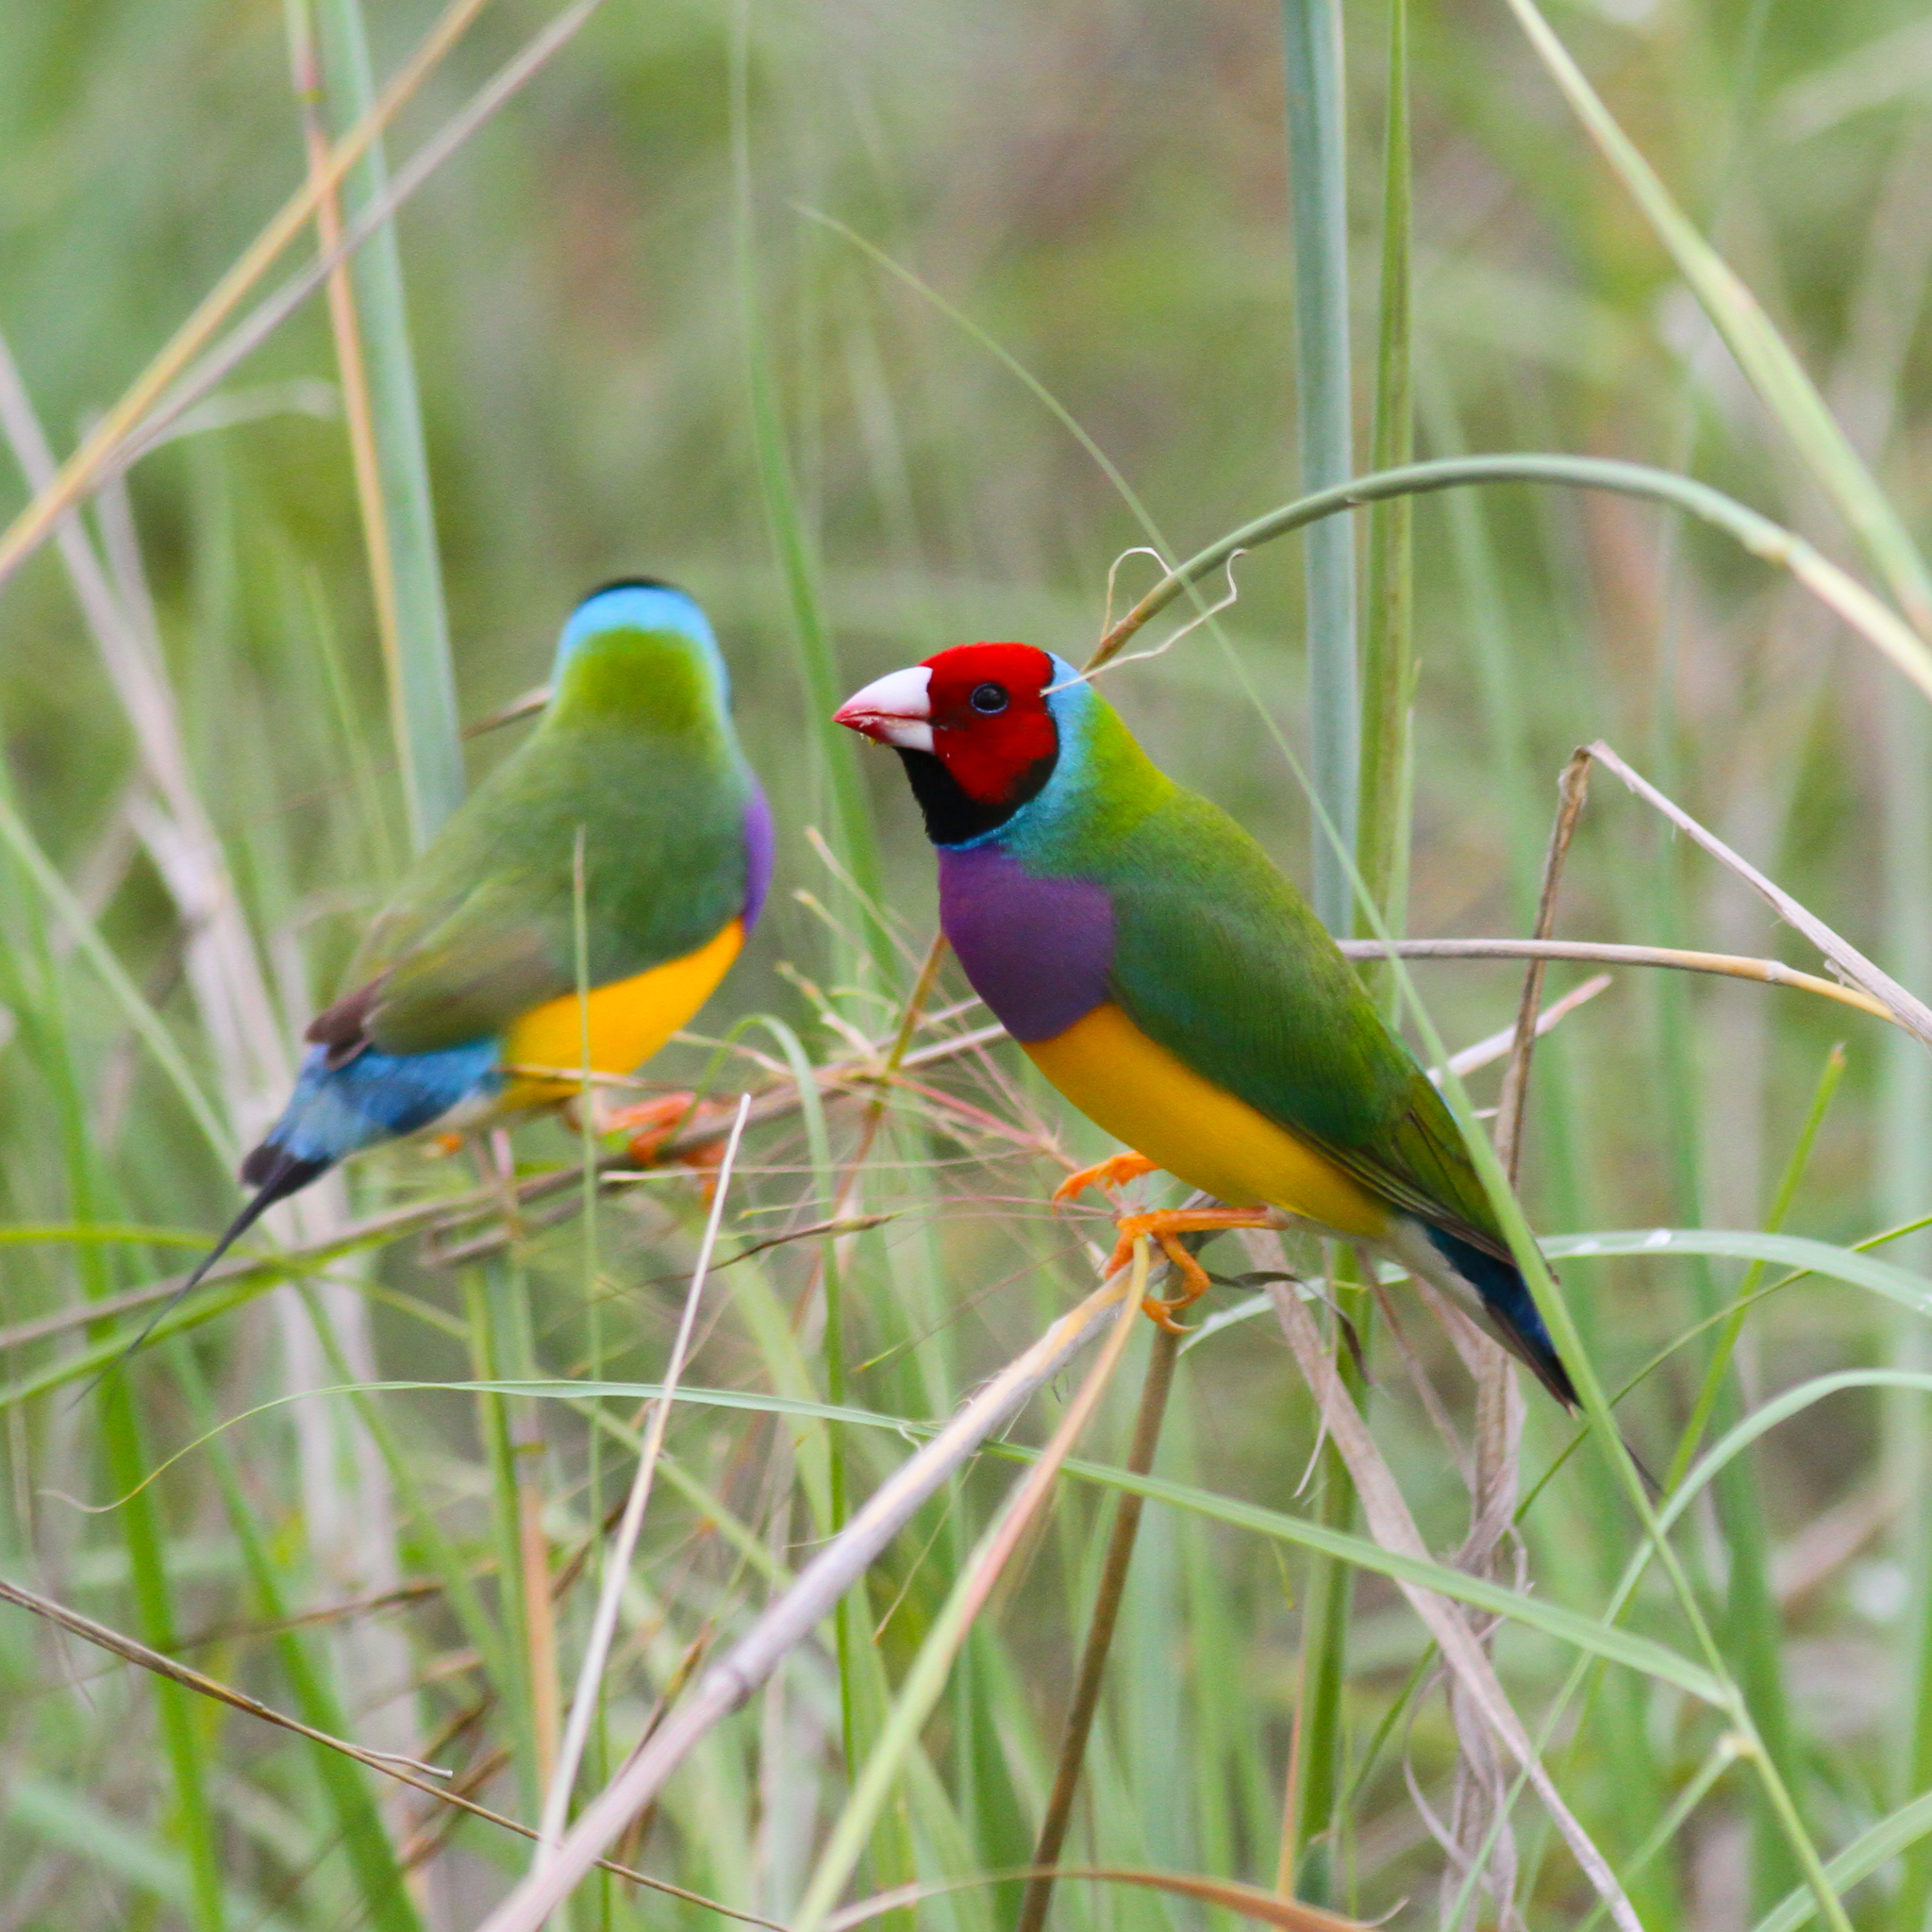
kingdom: Animalia
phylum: Chordata
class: Aves
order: Passeriformes
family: Estrildidae
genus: Erythrura
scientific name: Erythrura gouldiae
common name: Gouldian finch
